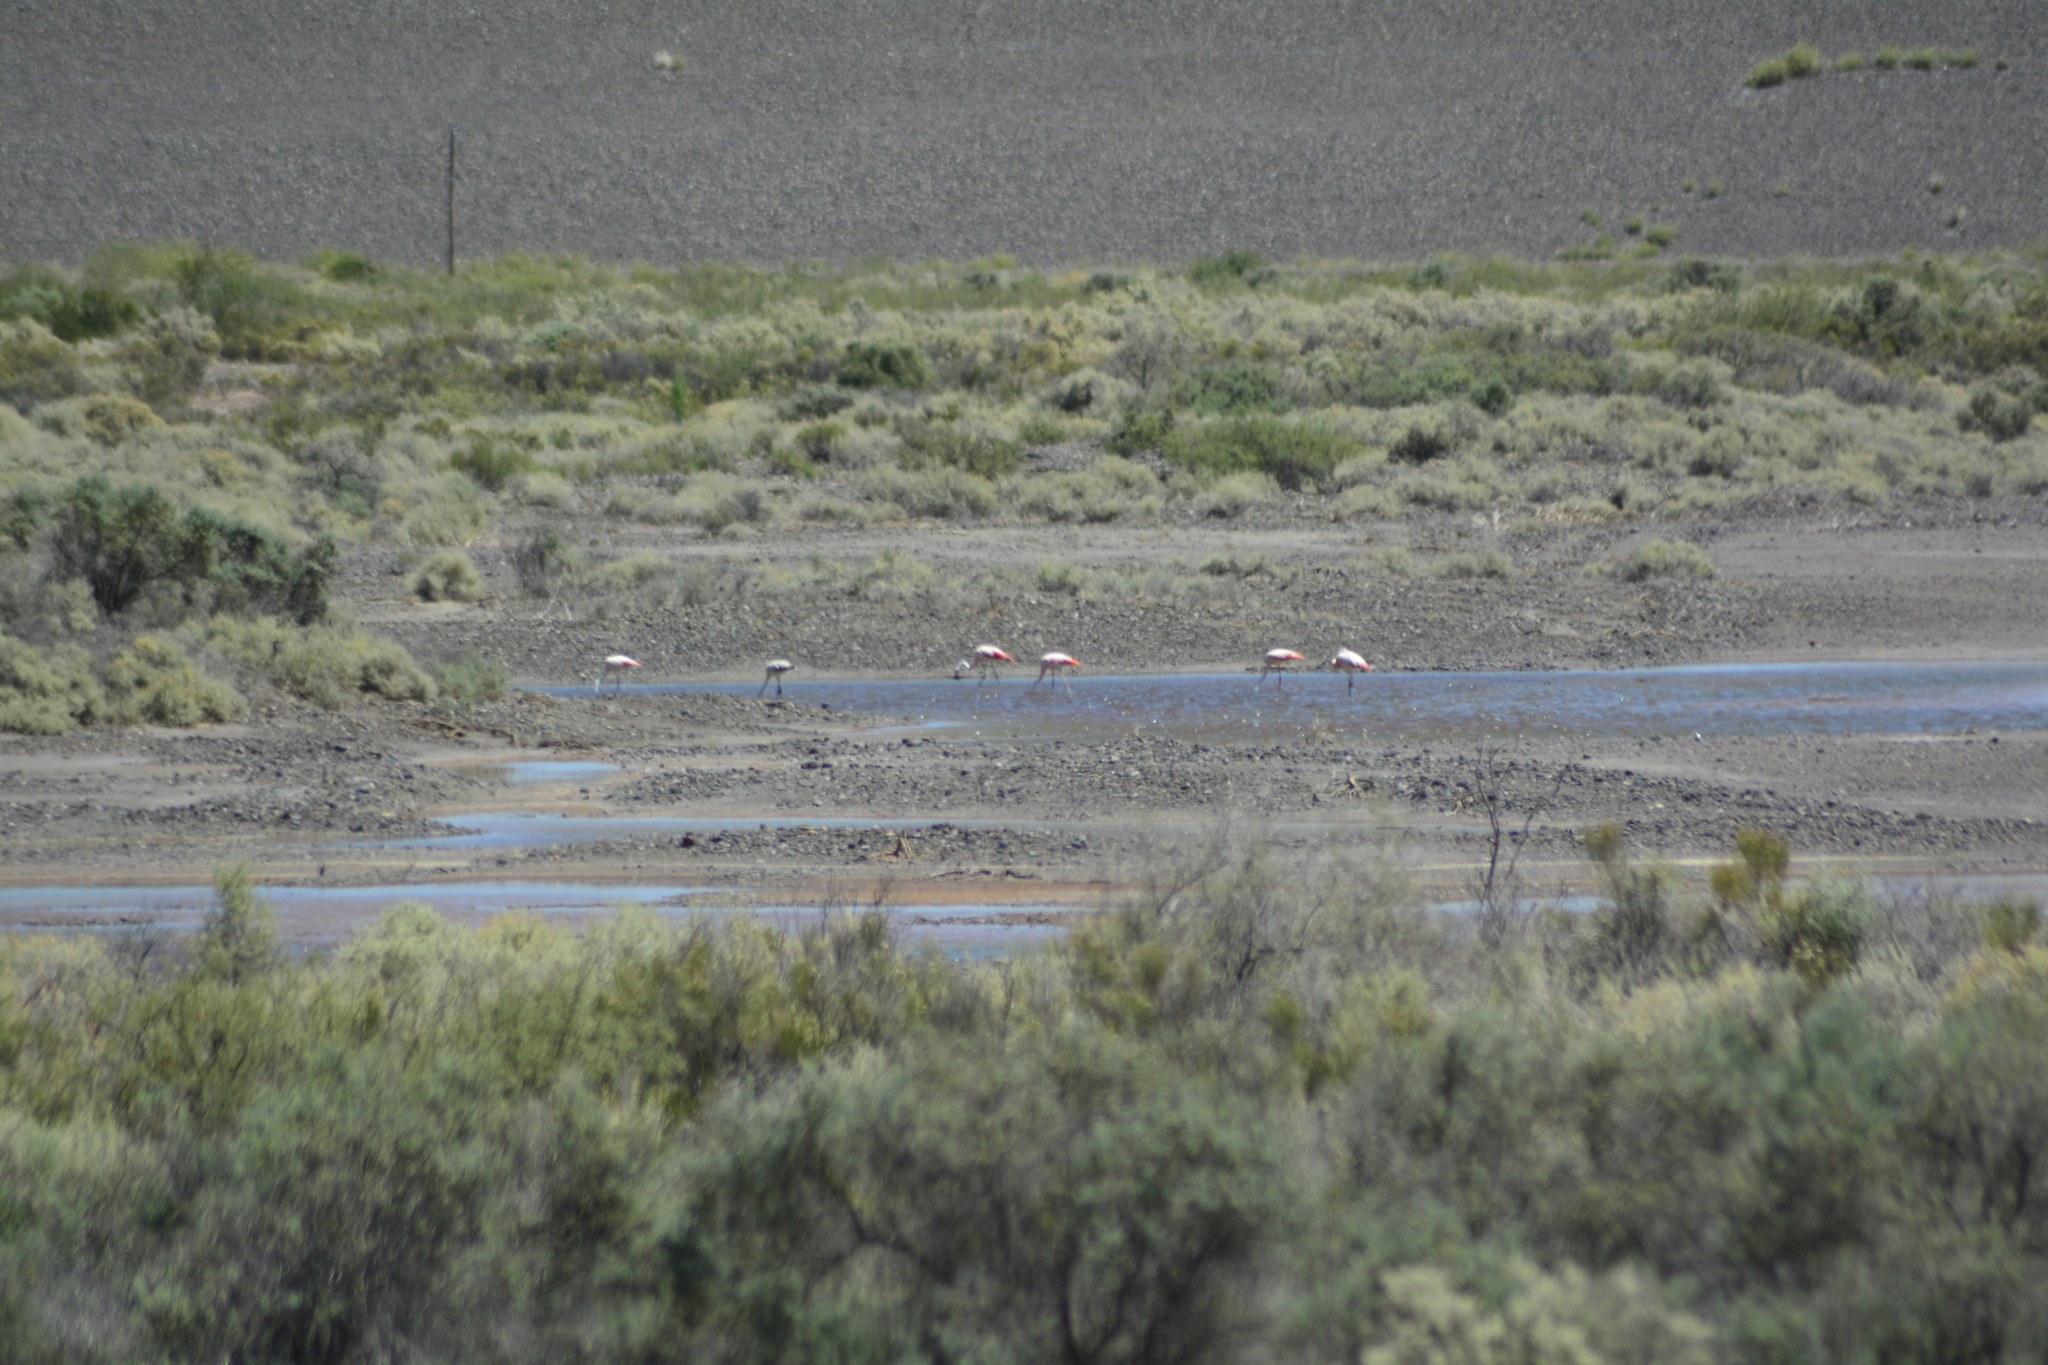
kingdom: Animalia
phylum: Chordata
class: Aves
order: Phoenicopteriformes
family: Phoenicopteridae
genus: Phoenicopterus
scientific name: Phoenicopterus chilensis
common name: Chilean flamingo
